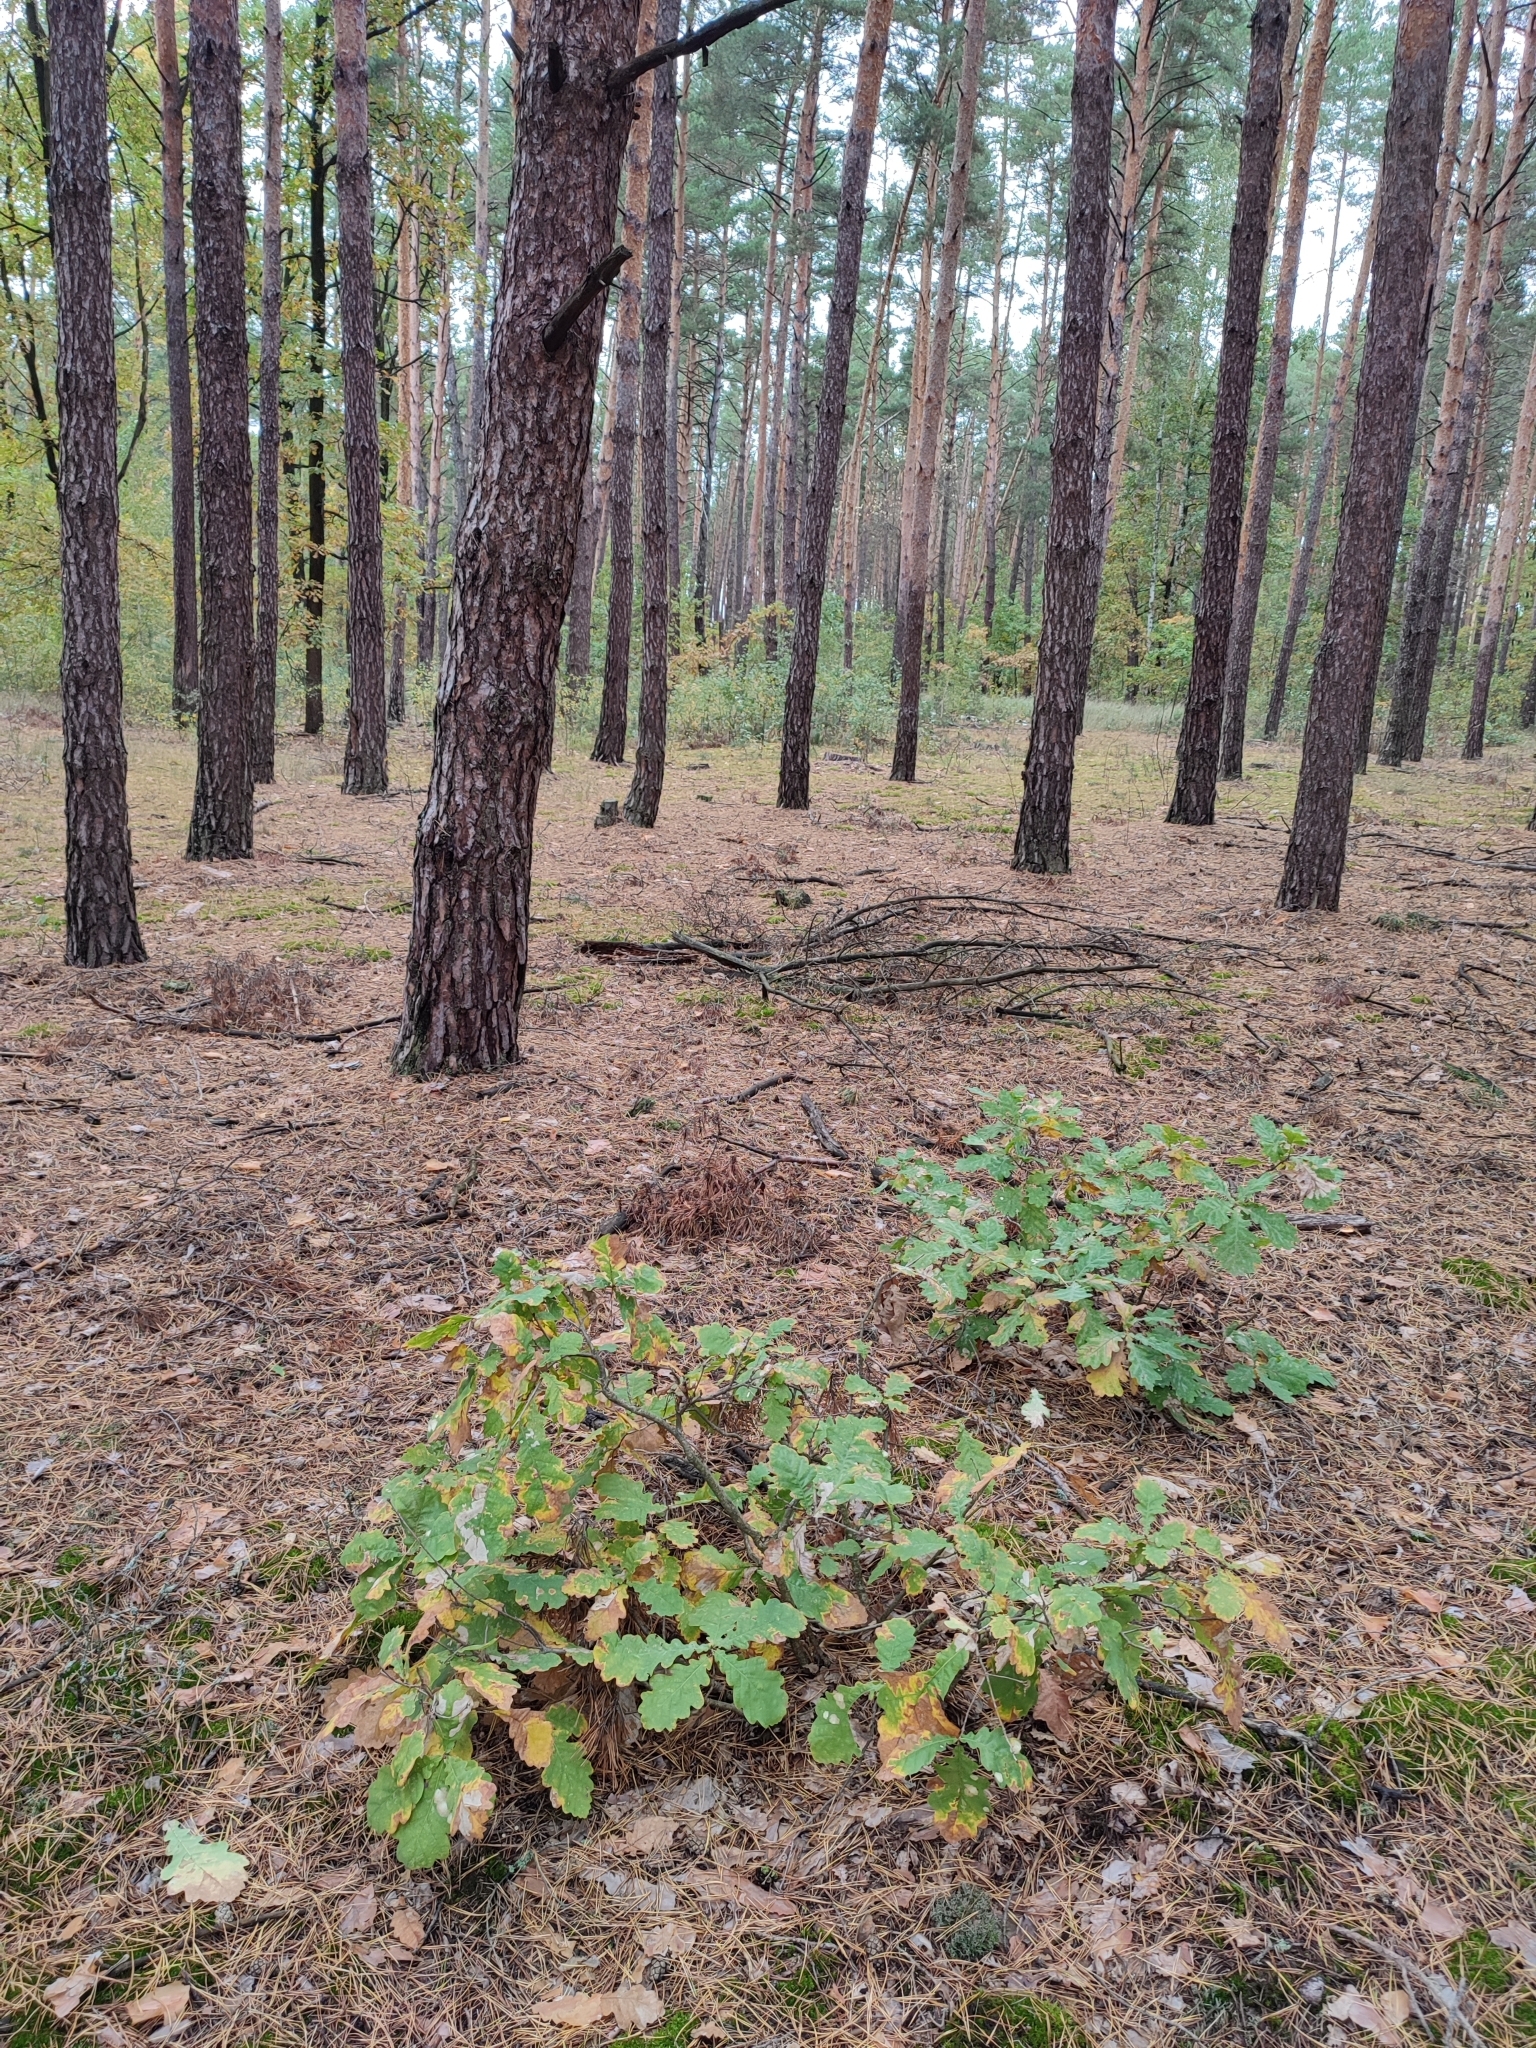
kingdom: Plantae
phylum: Tracheophyta
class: Magnoliopsida
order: Fagales
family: Fagaceae
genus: Quercus
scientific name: Quercus robur
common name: Pedunculate oak
